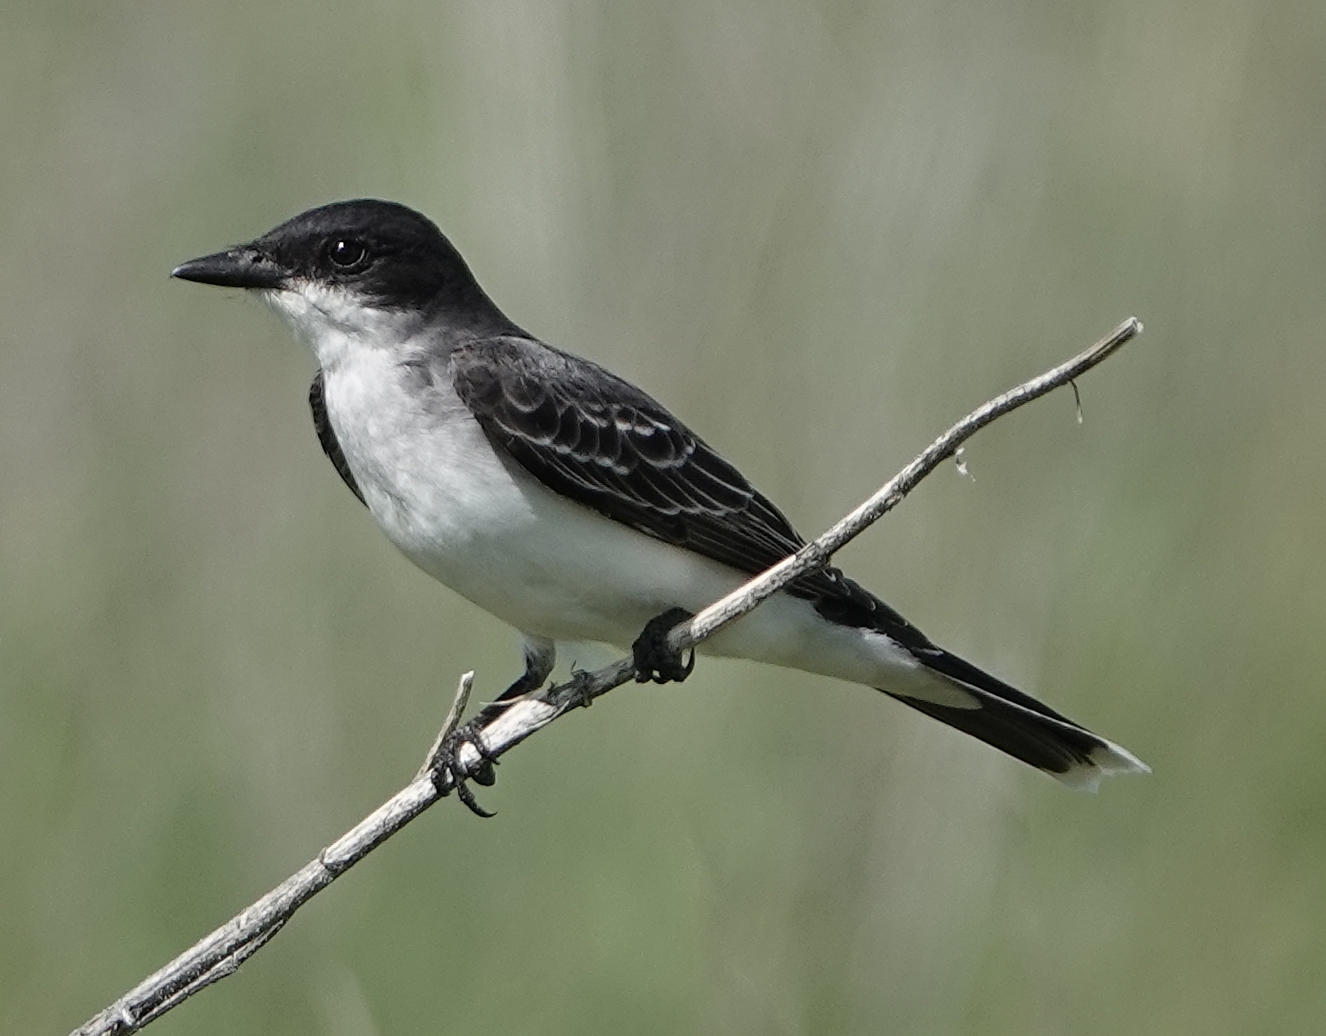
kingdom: Animalia
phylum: Chordata
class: Aves
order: Passeriformes
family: Tyrannidae
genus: Tyrannus
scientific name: Tyrannus tyrannus
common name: Eastern kingbird
